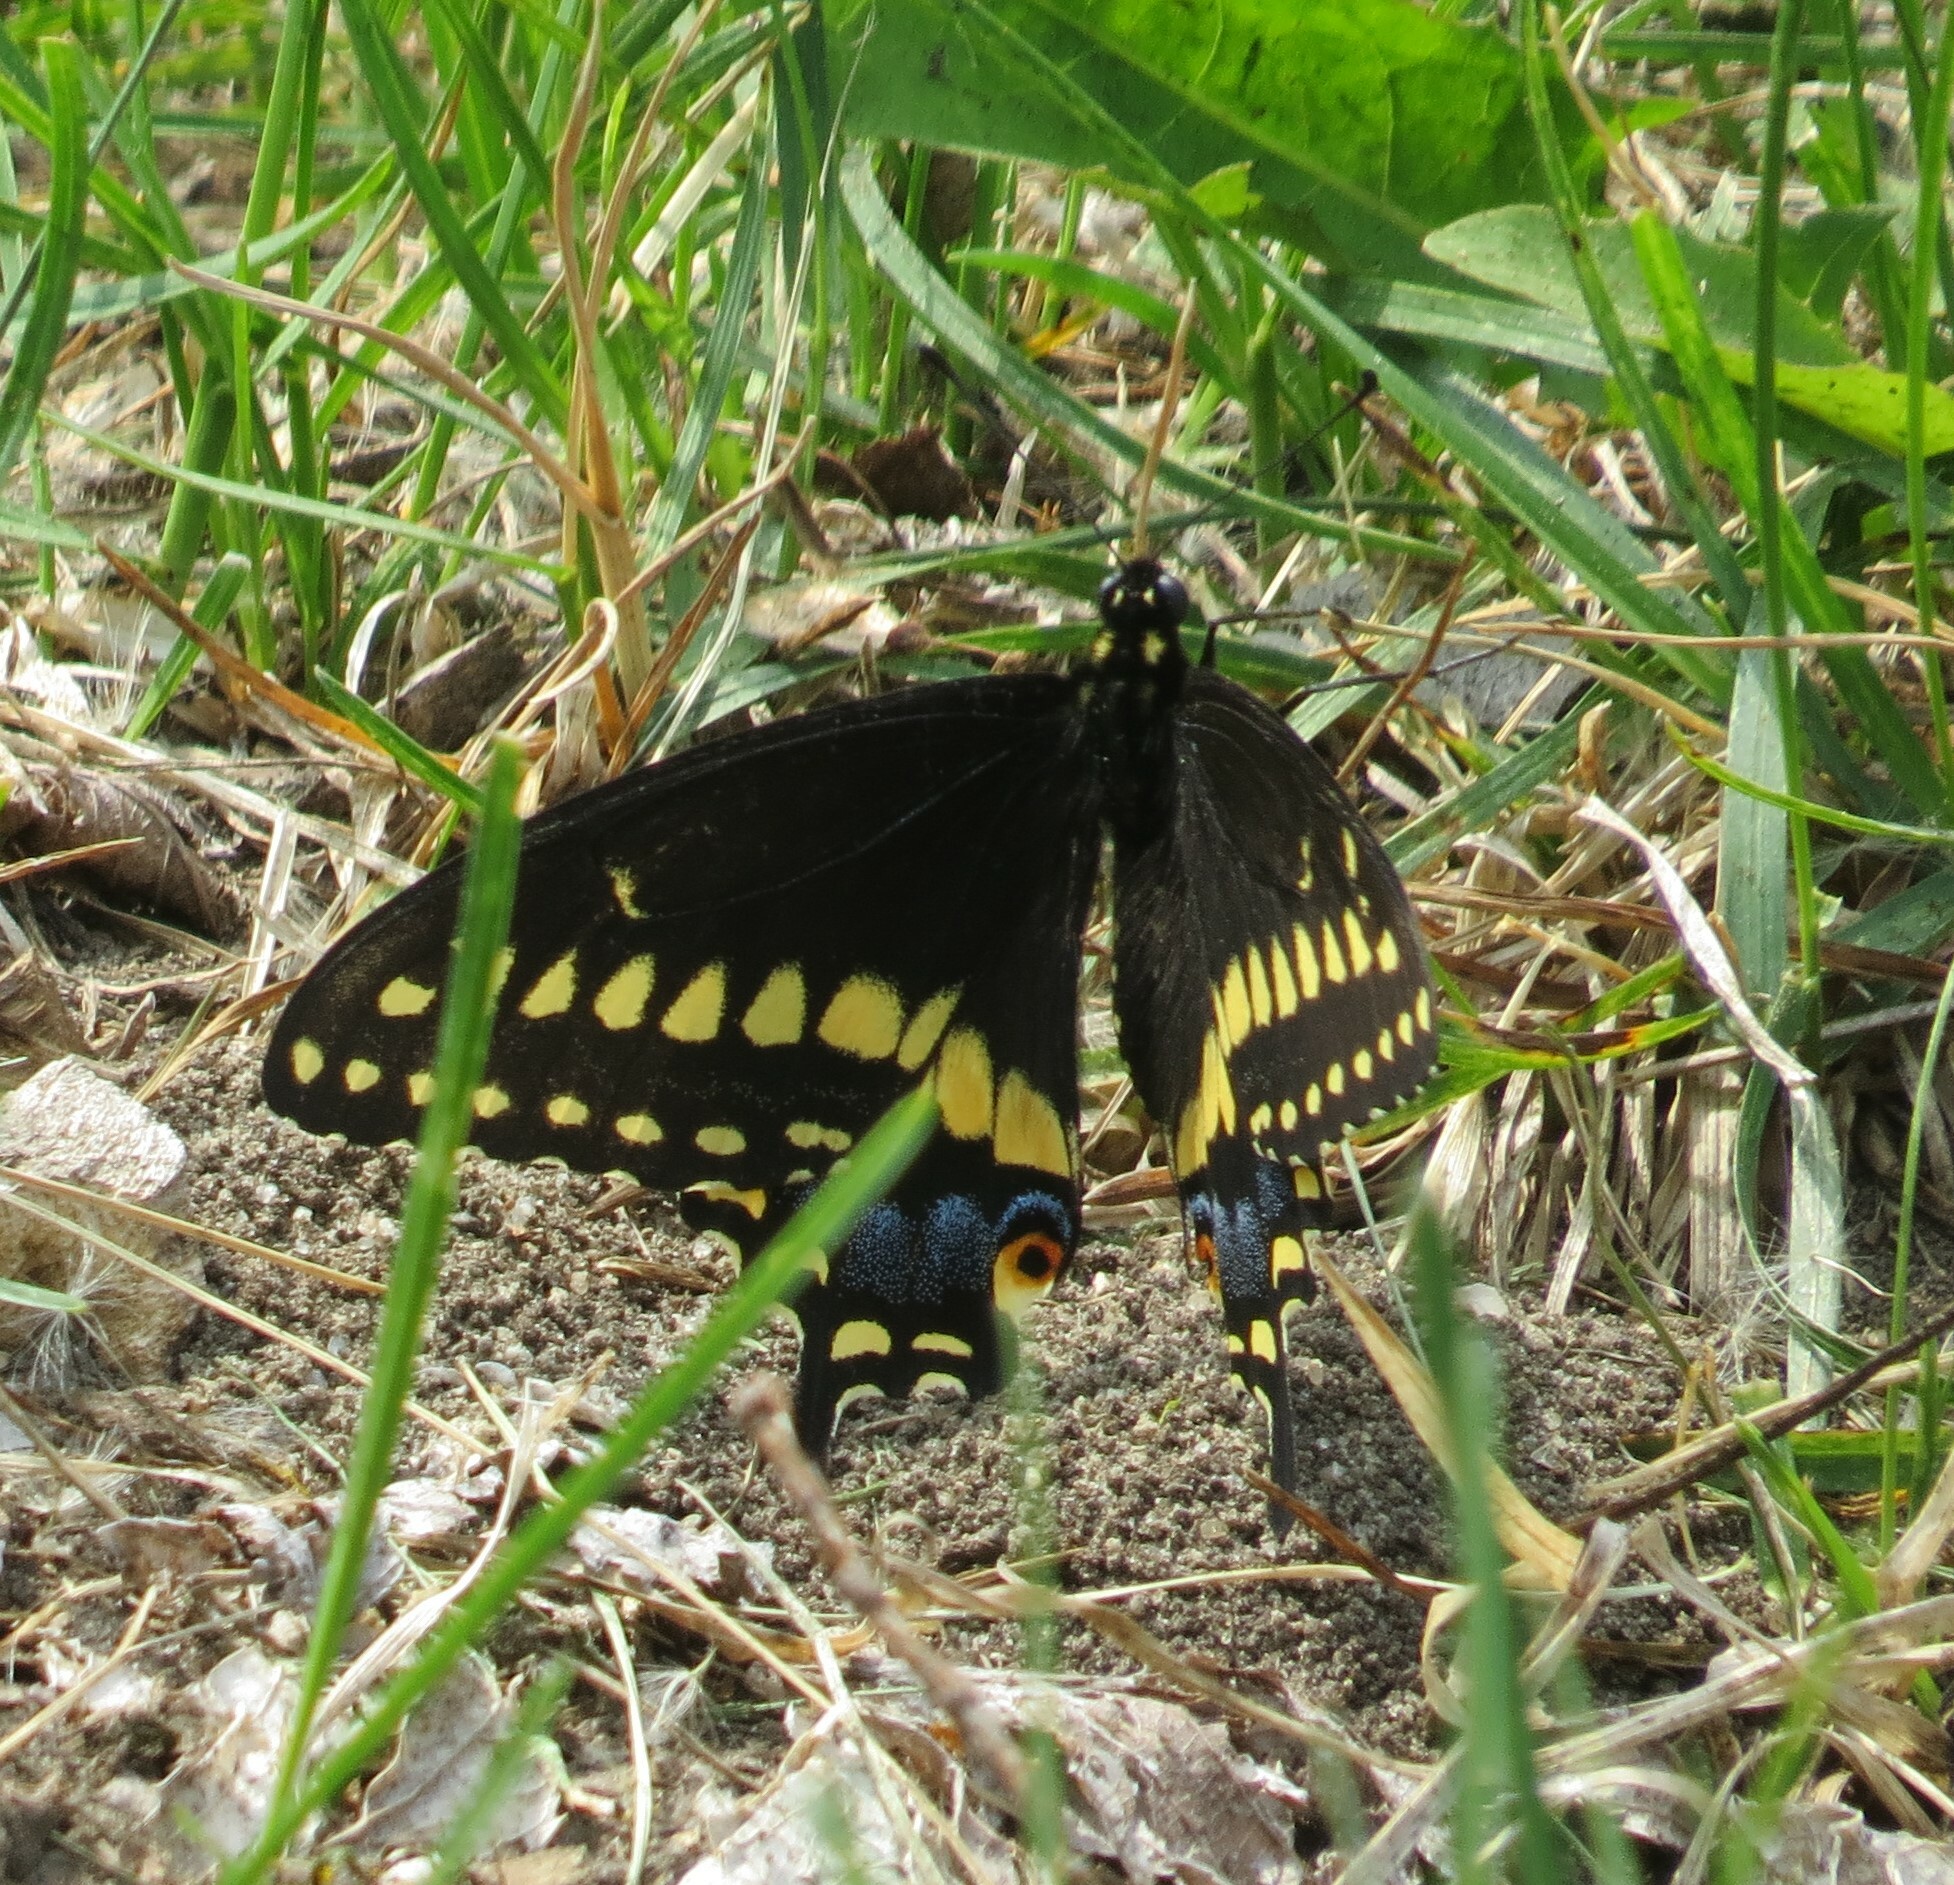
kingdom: Animalia
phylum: Arthropoda
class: Insecta
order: Lepidoptera
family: Papilionidae
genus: Papilio
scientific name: Papilio polyxenes
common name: Black swallowtail
